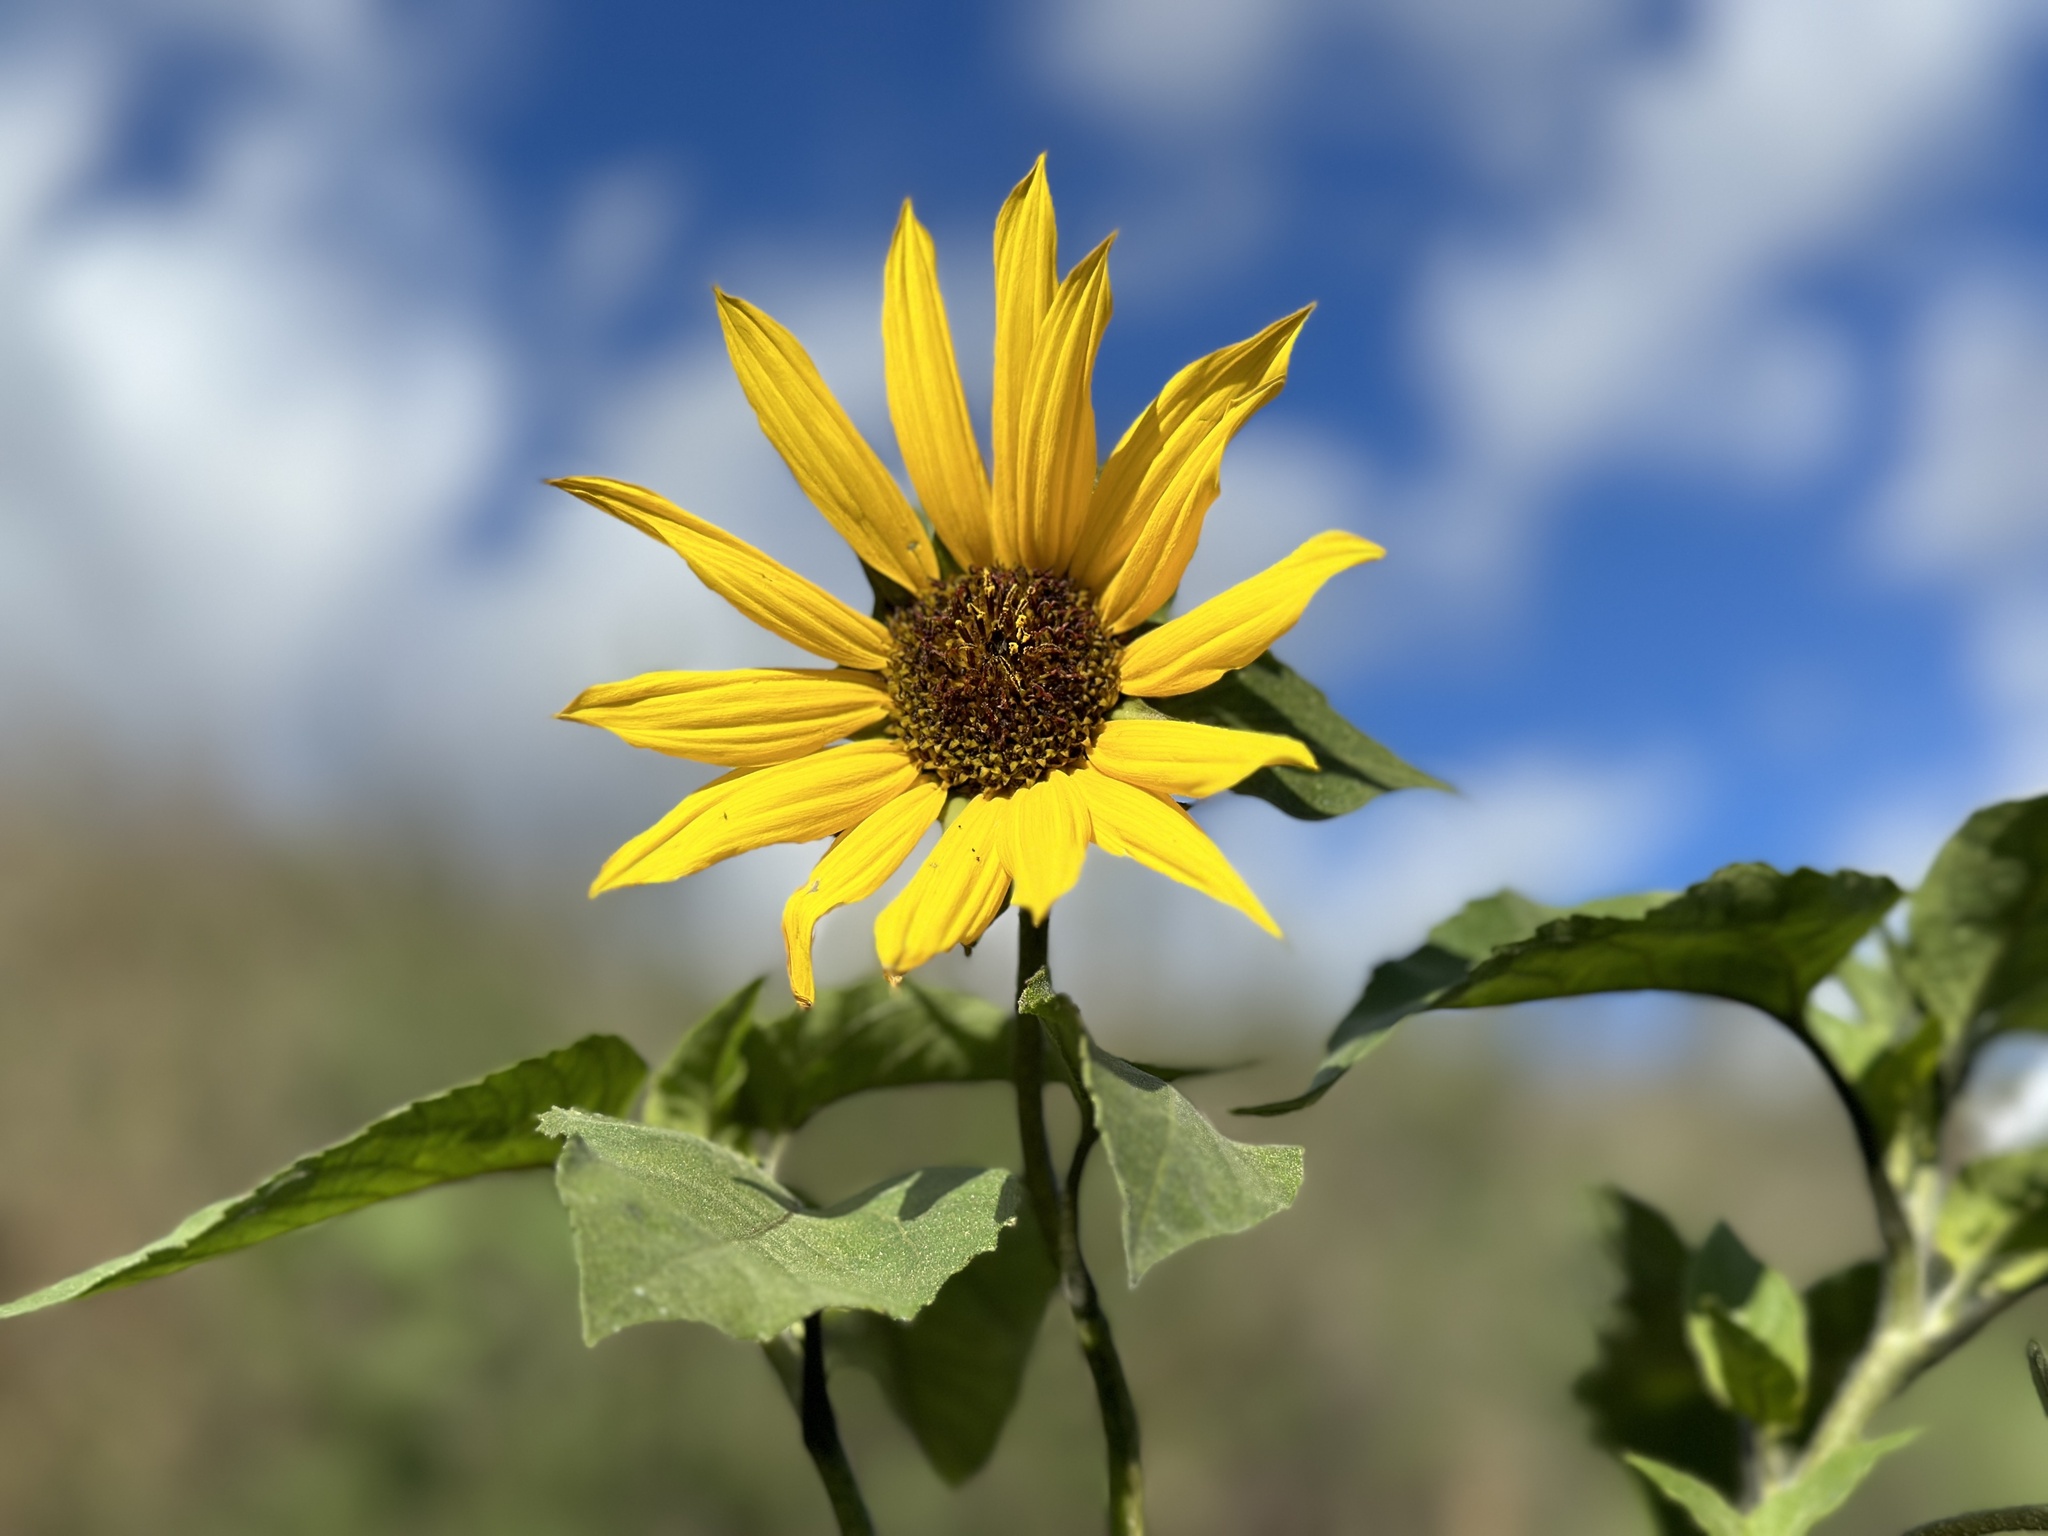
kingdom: Plantae
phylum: Tracheophyta
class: Magnoliopsida
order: Asterales
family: Asteraceae
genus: Helianthus
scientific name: Helianthus annuus
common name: Sunflower
